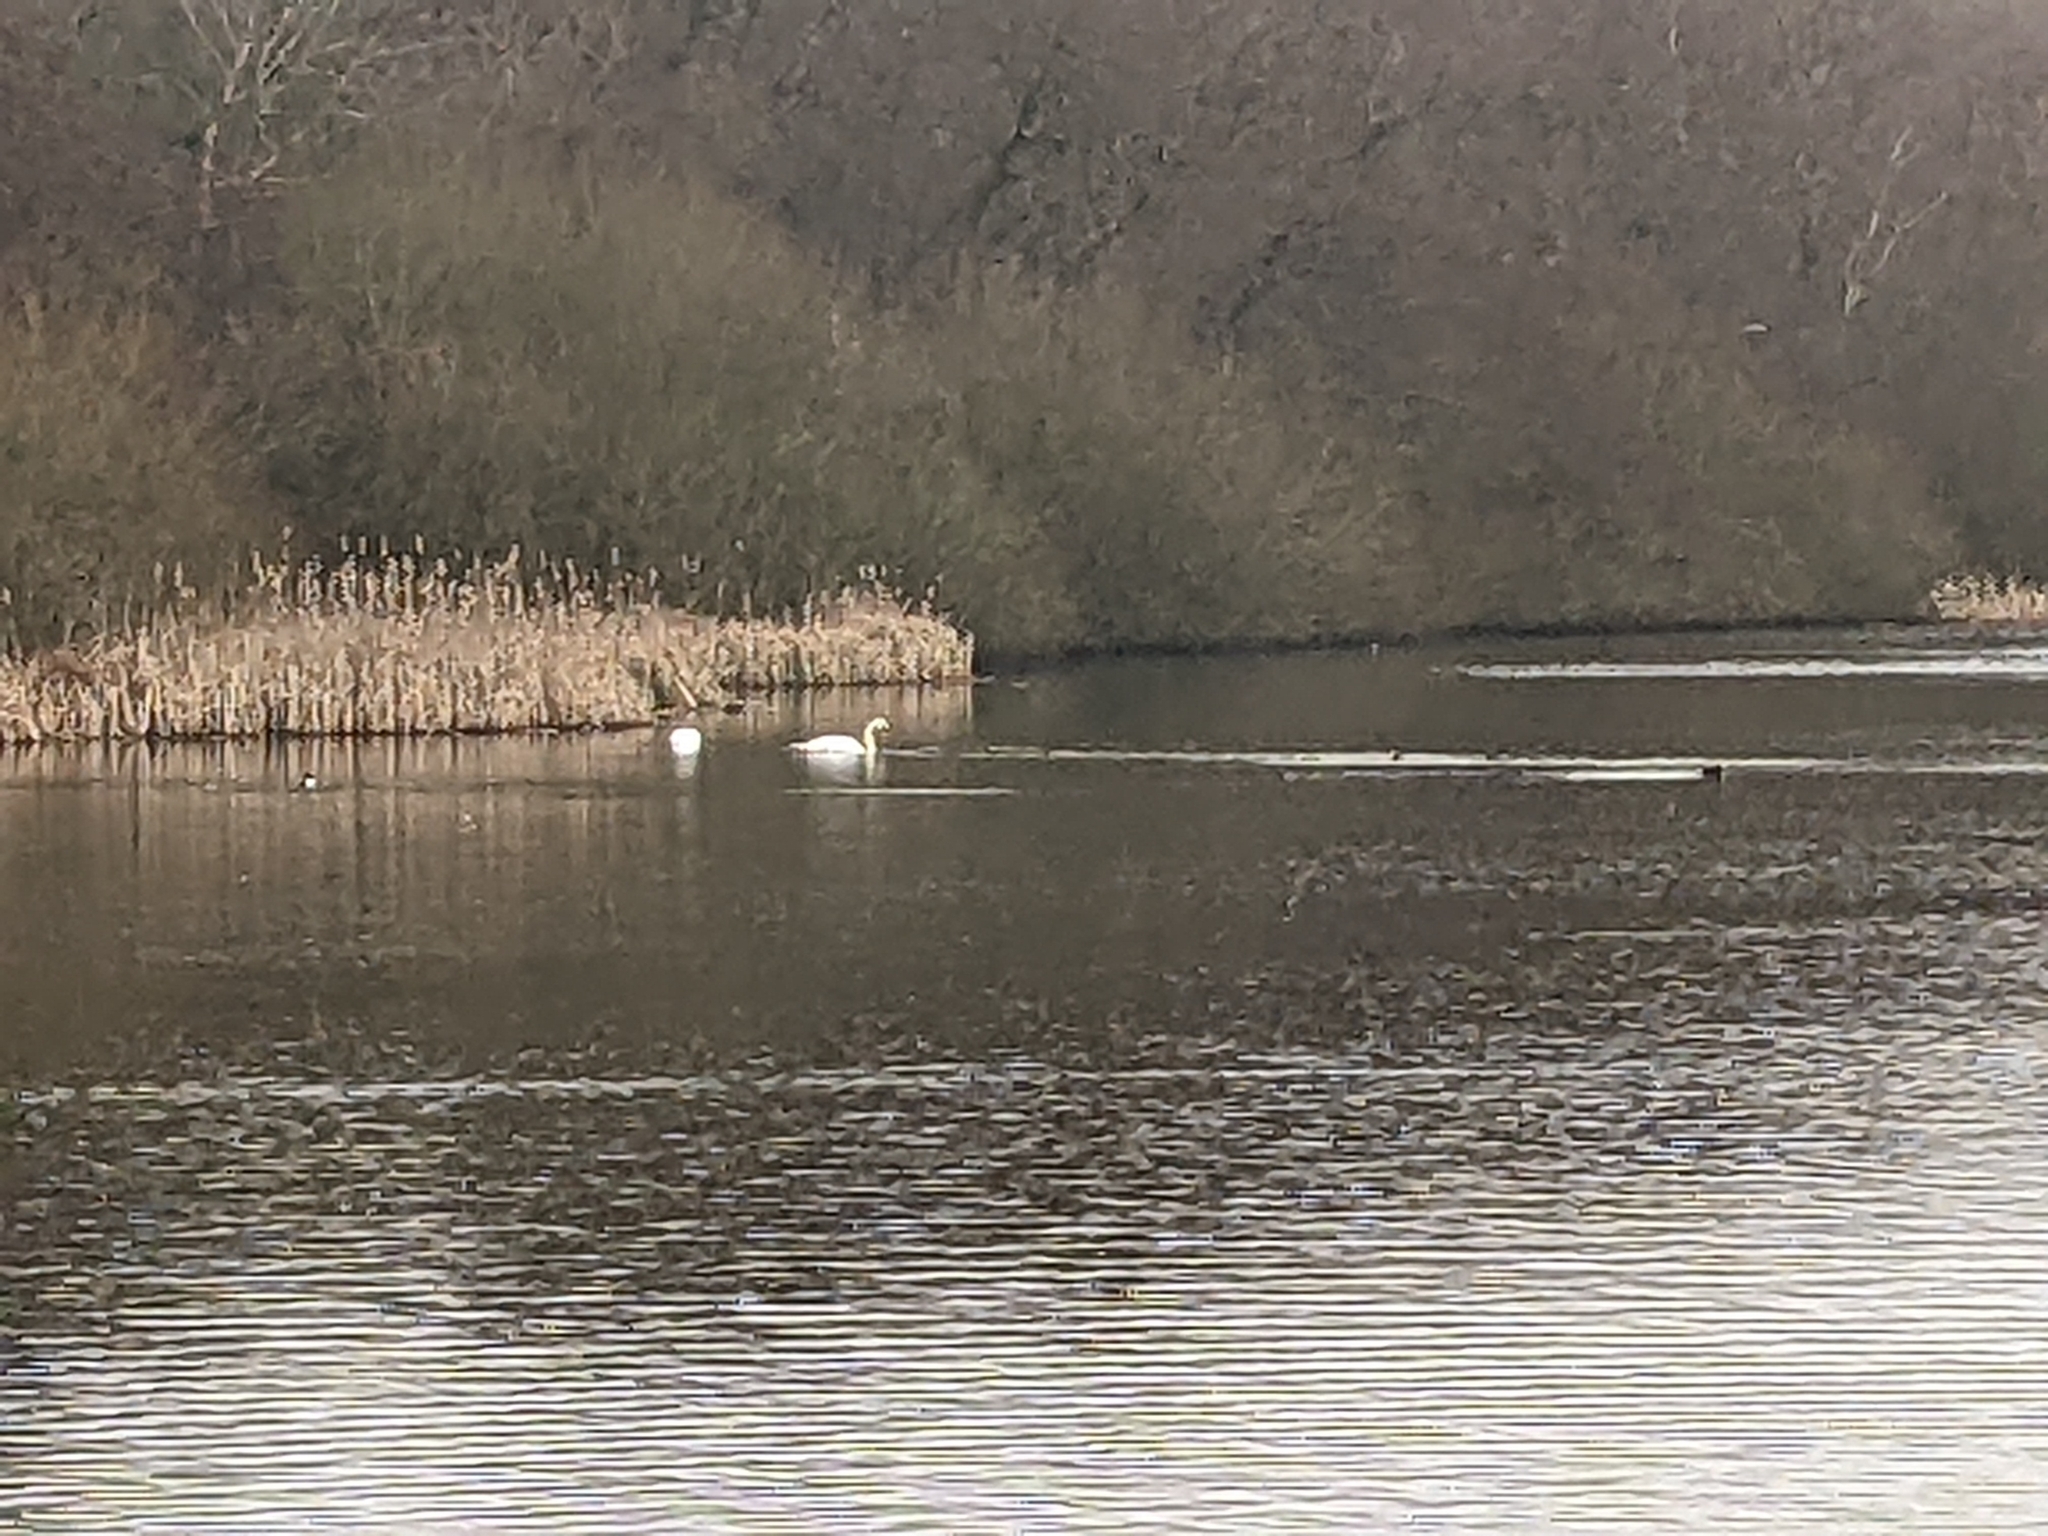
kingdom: Animalia
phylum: Chordata
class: Aves
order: Anseriformes
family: Anatidae
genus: Cygnus
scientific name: Cygnus olor
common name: Mute swan
